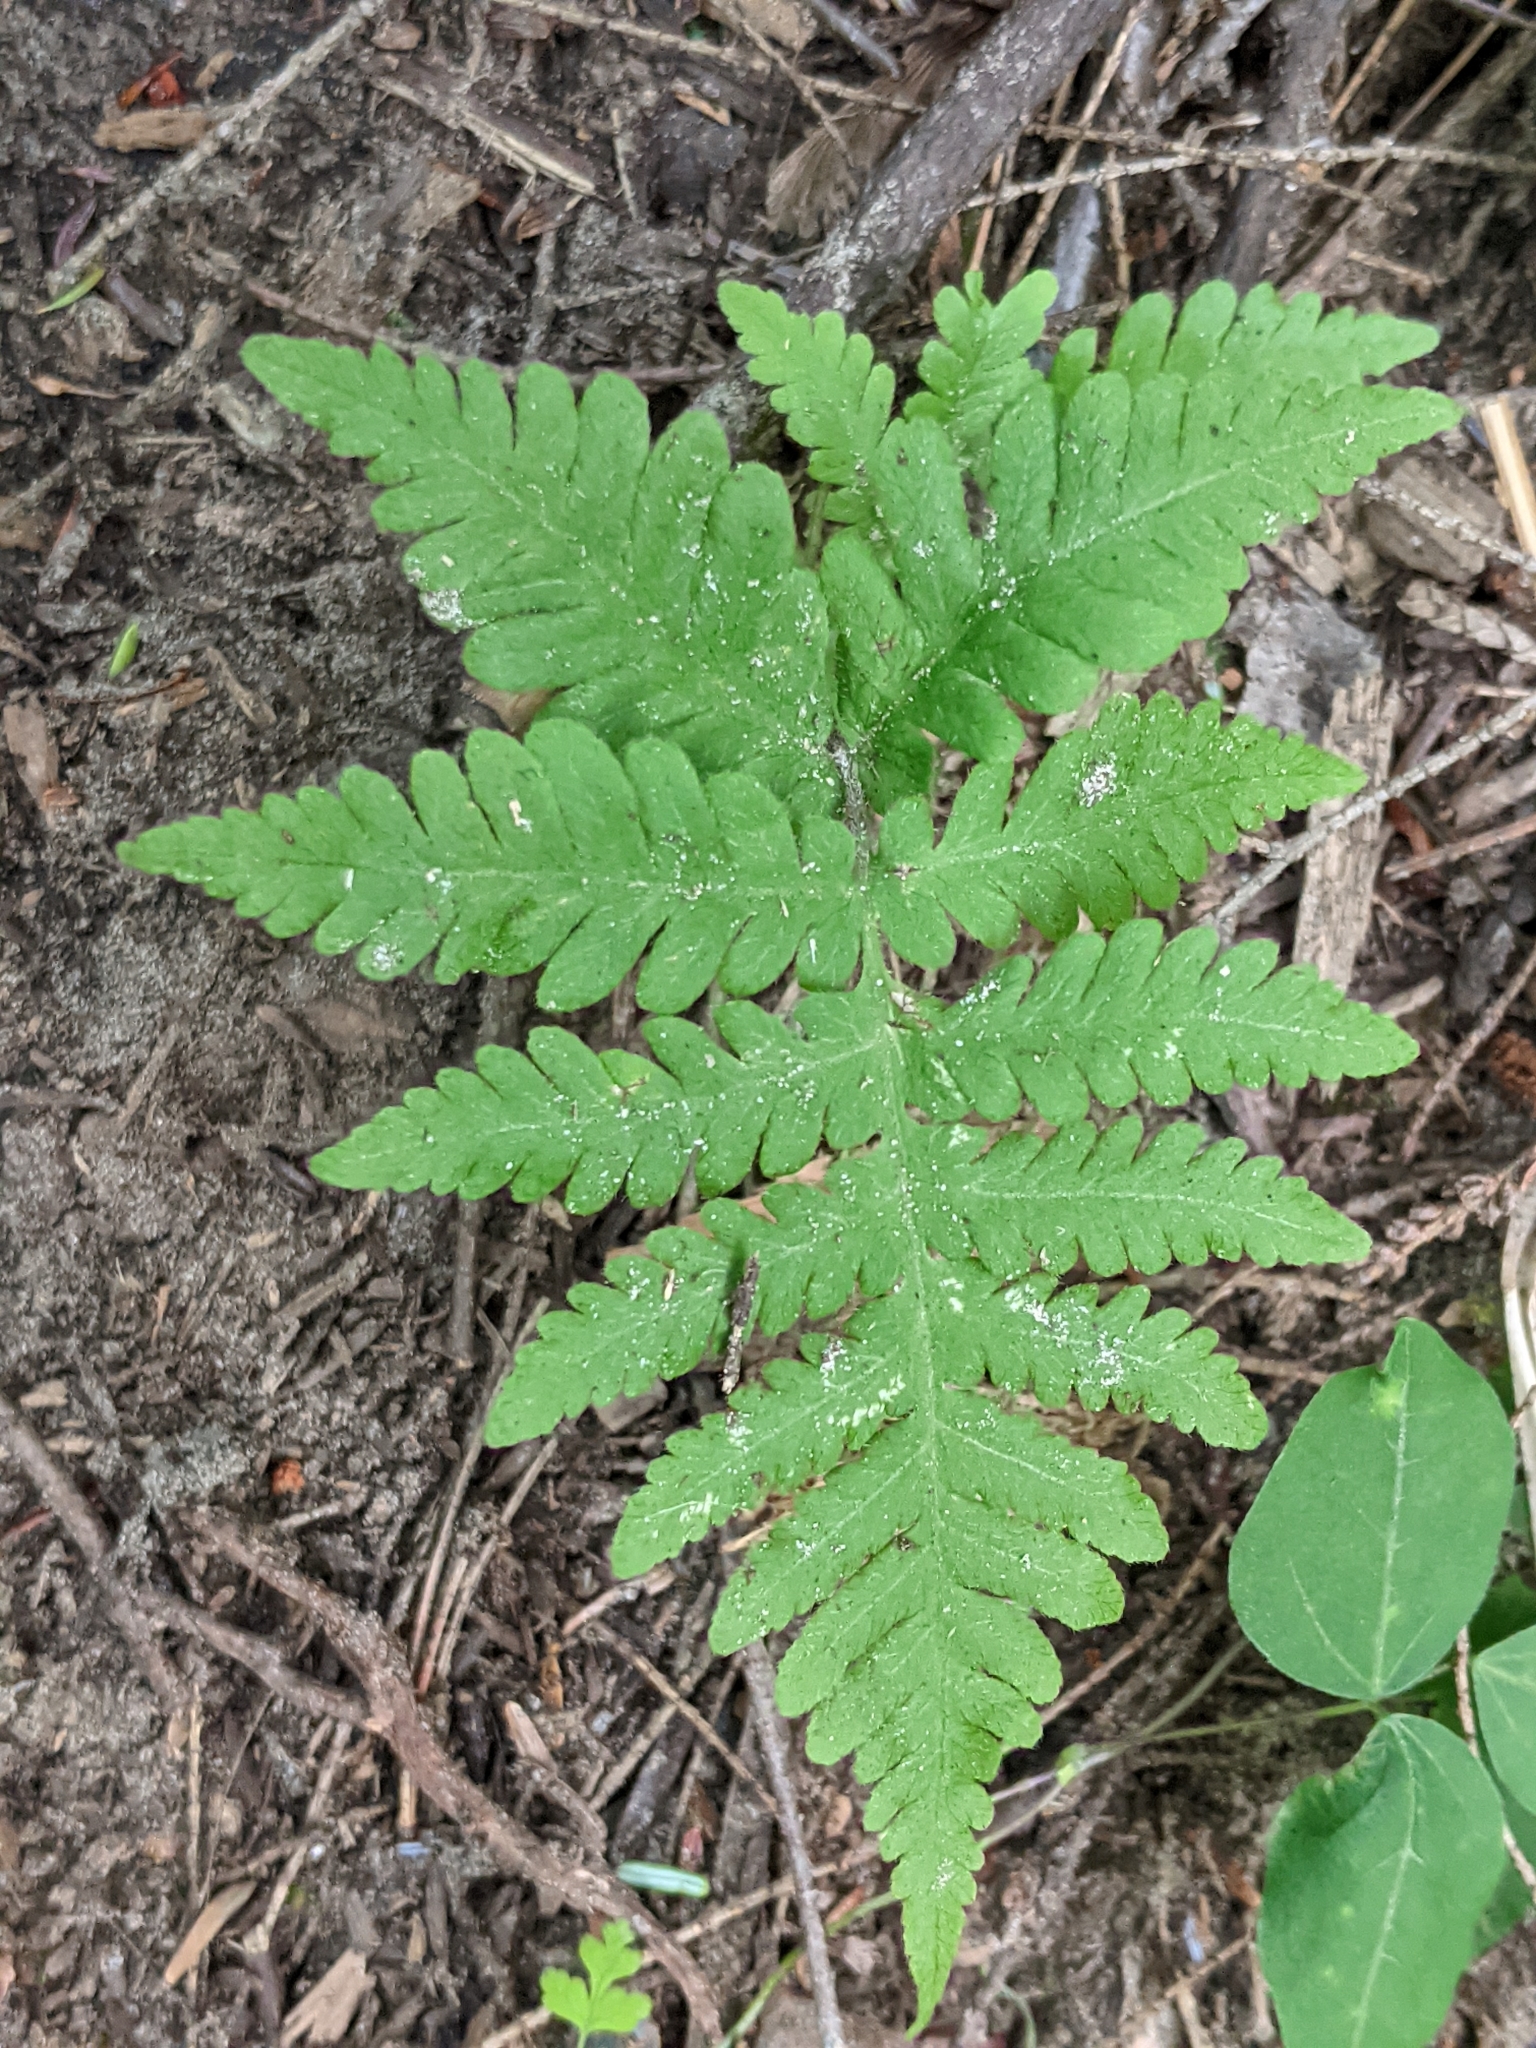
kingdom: Plantae
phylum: Tracheophyta
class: Polypodiopsida
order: Polypodiales
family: Thelypteridaceae
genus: Phegopteris
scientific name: Phegopteris connectilis
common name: Beech fern
